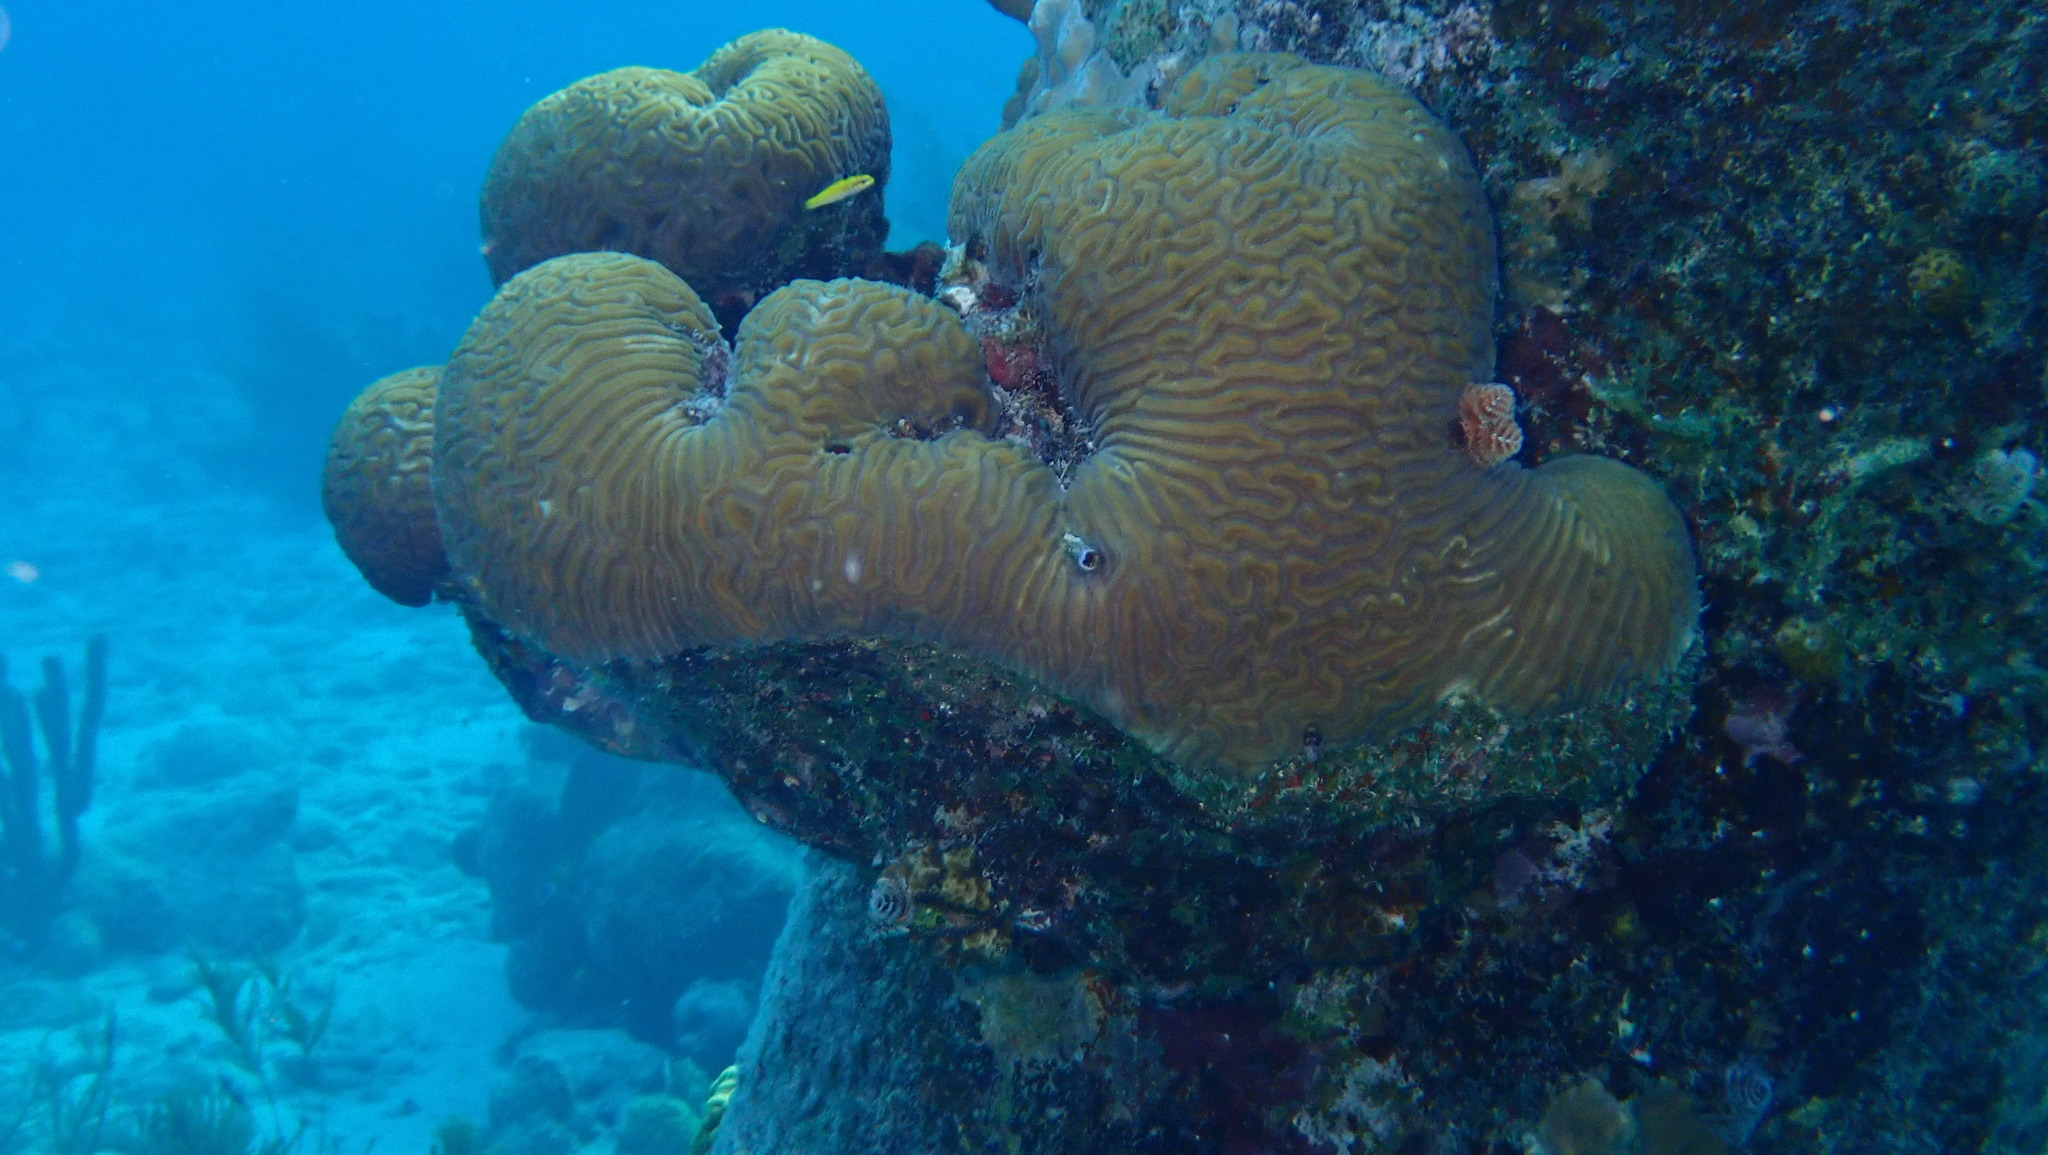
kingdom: Animalia
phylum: Cnidaria
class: Anthozoa
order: Scleractinia
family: Faviidae
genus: Diploria
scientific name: Diploria labyrinthiformis
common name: Grooved brain coral
